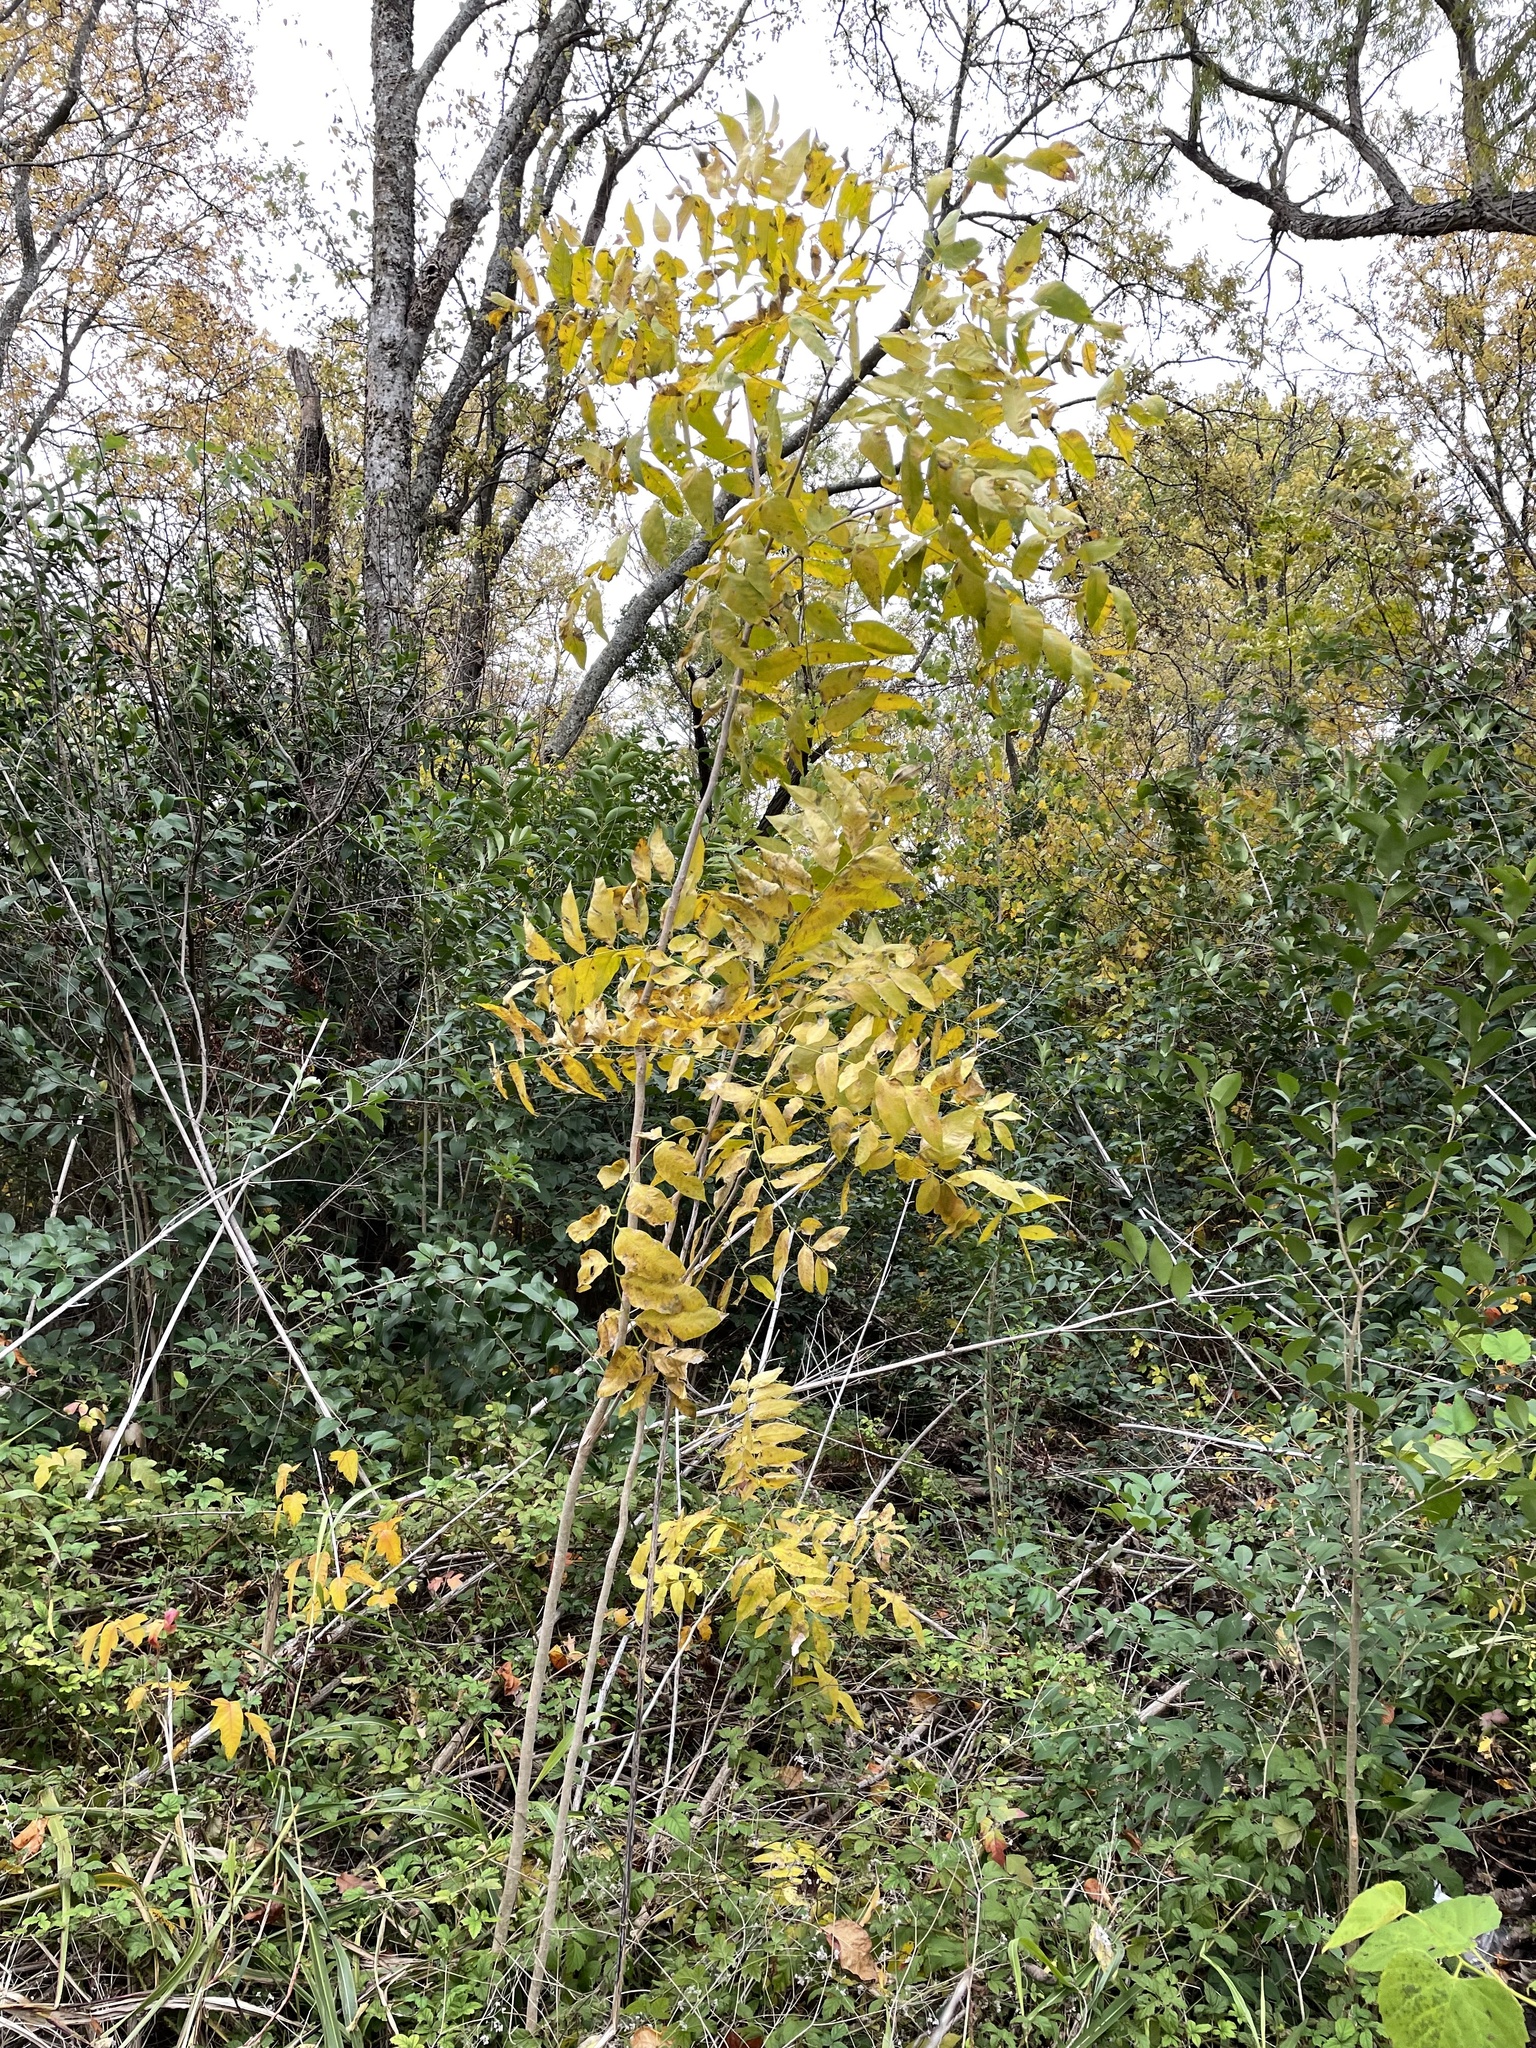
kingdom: Plantae
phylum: Tracheophyta
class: Magnoliopsida
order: Sapindales
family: Sapindaceae
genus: Sapindus
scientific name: Sapindus drummondii
